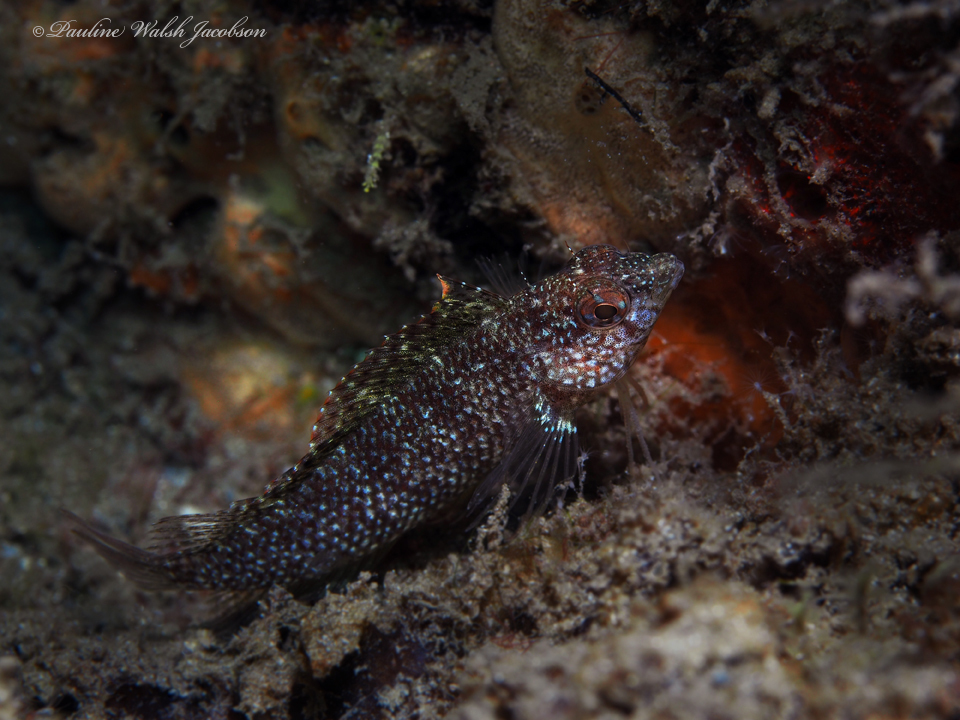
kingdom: Animalia
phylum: Chordata
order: Perciformes
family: Labrisomidae
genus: Malacoctenus
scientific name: Malacoctenus macropus
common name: Rosy blenny
